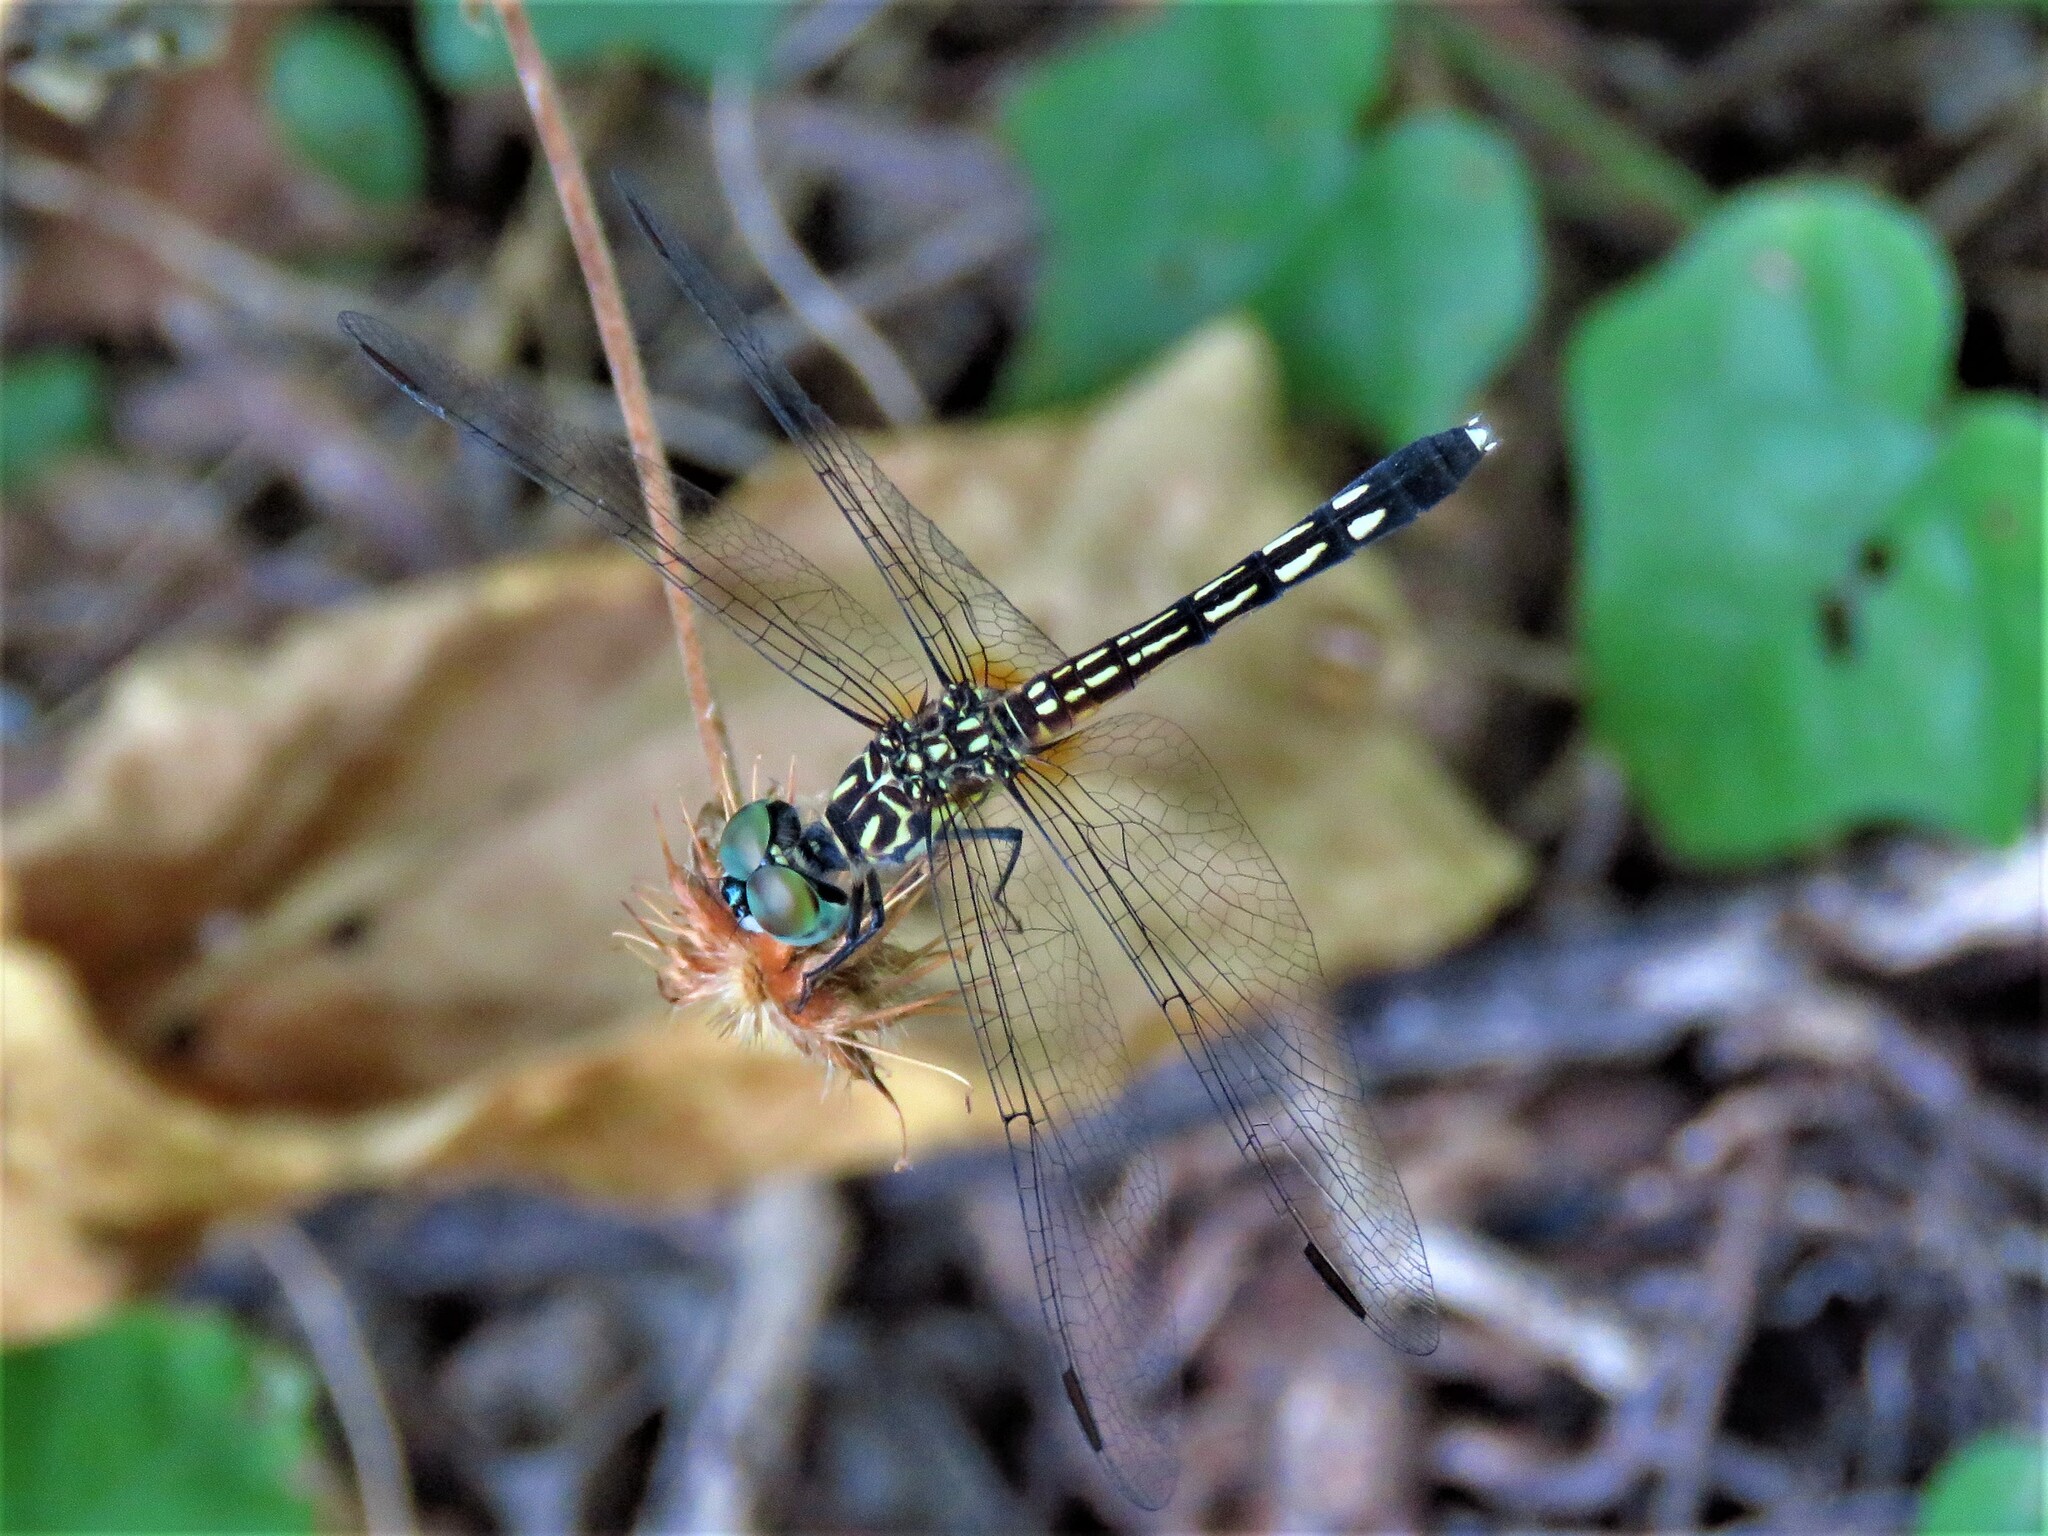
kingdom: Animalia
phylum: Arthropoda
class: Insecta
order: Odonata
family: Libellulidae
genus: Pachydiplax
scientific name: Pachydiplax longipennis
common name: Blue dasher
